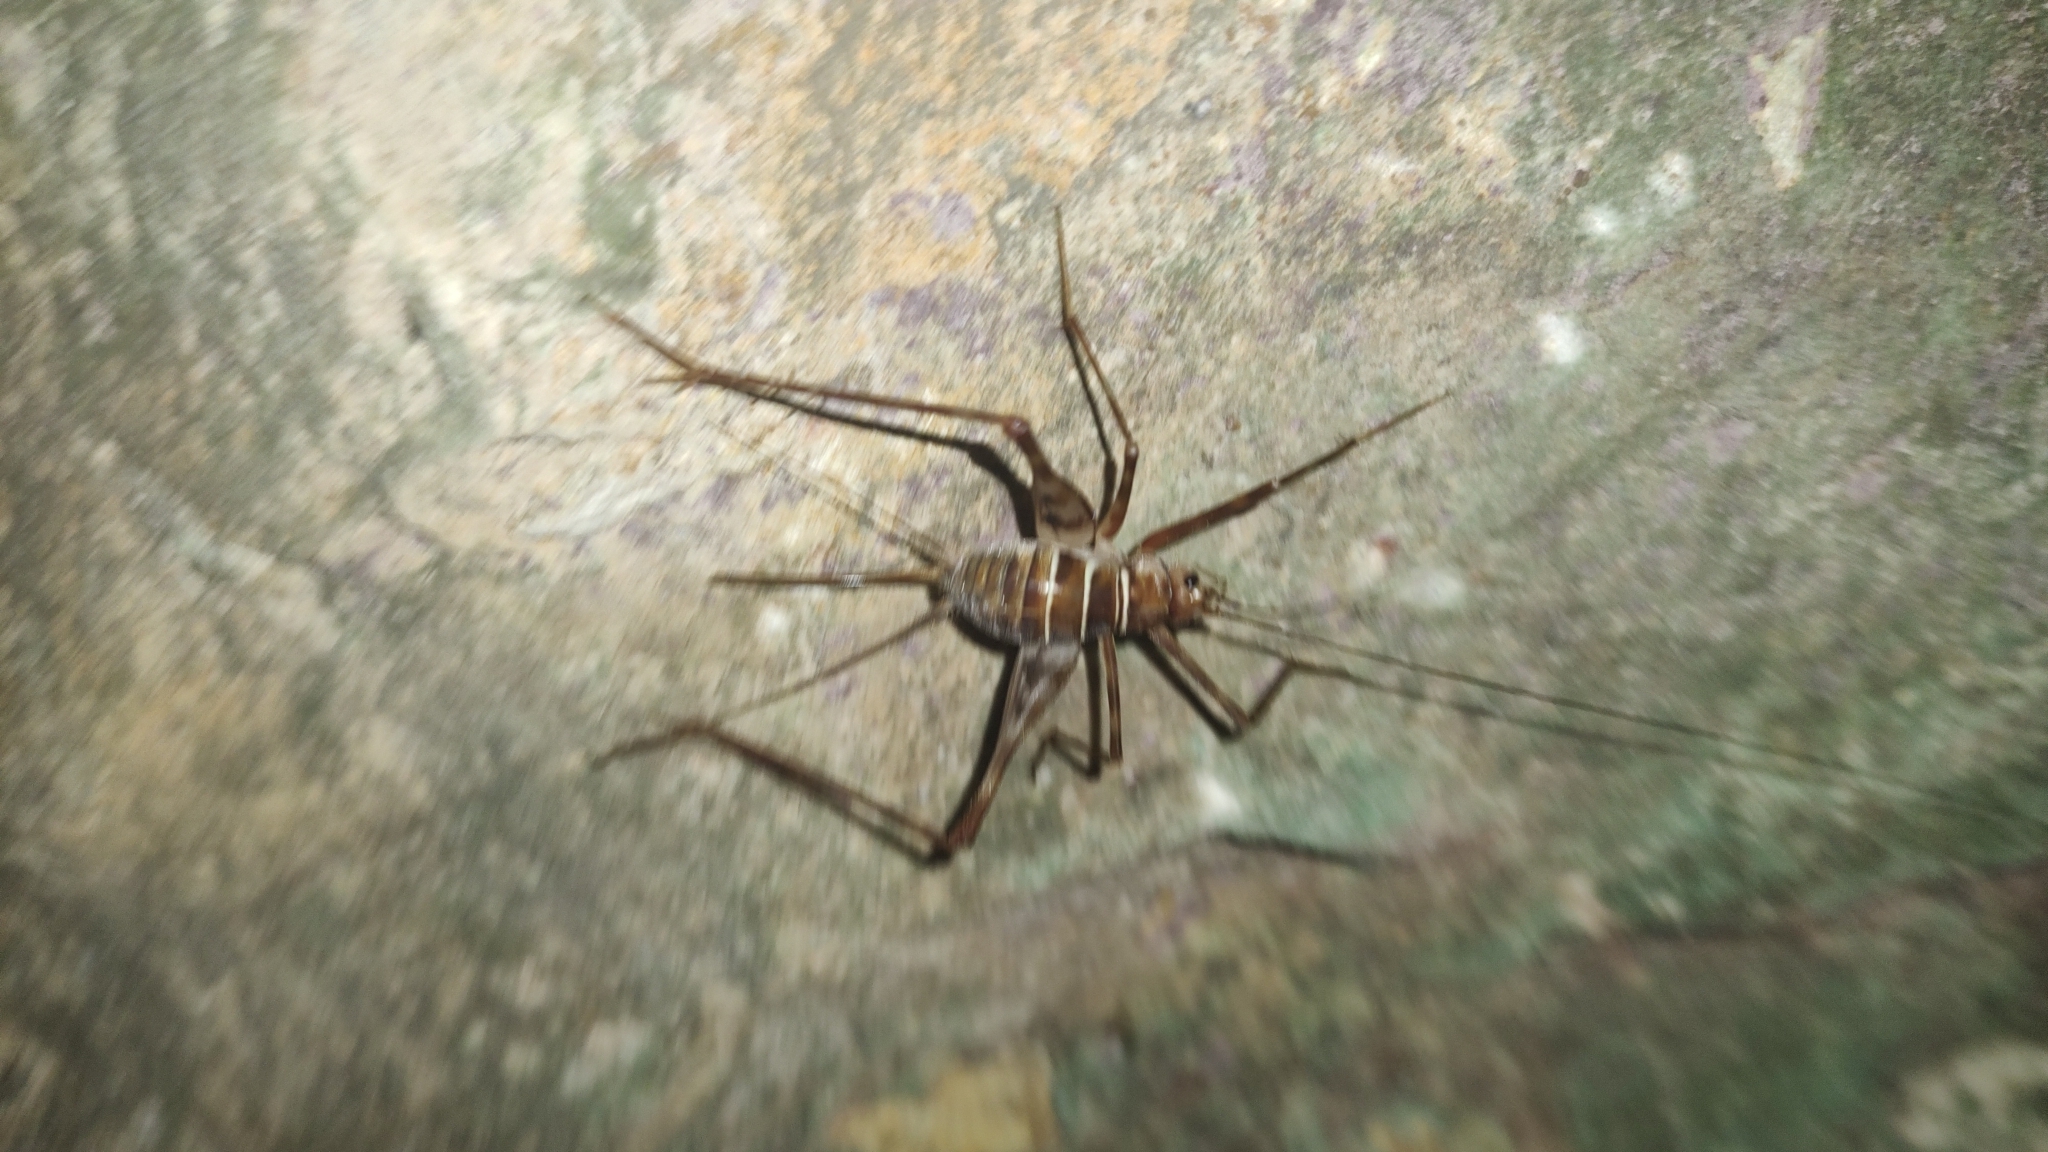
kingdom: Animalia
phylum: Arthropoda
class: Insecta
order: Orthoptera
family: Phalangopsidae
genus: Mayagryllus
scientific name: Mayagryllus yucatanus
